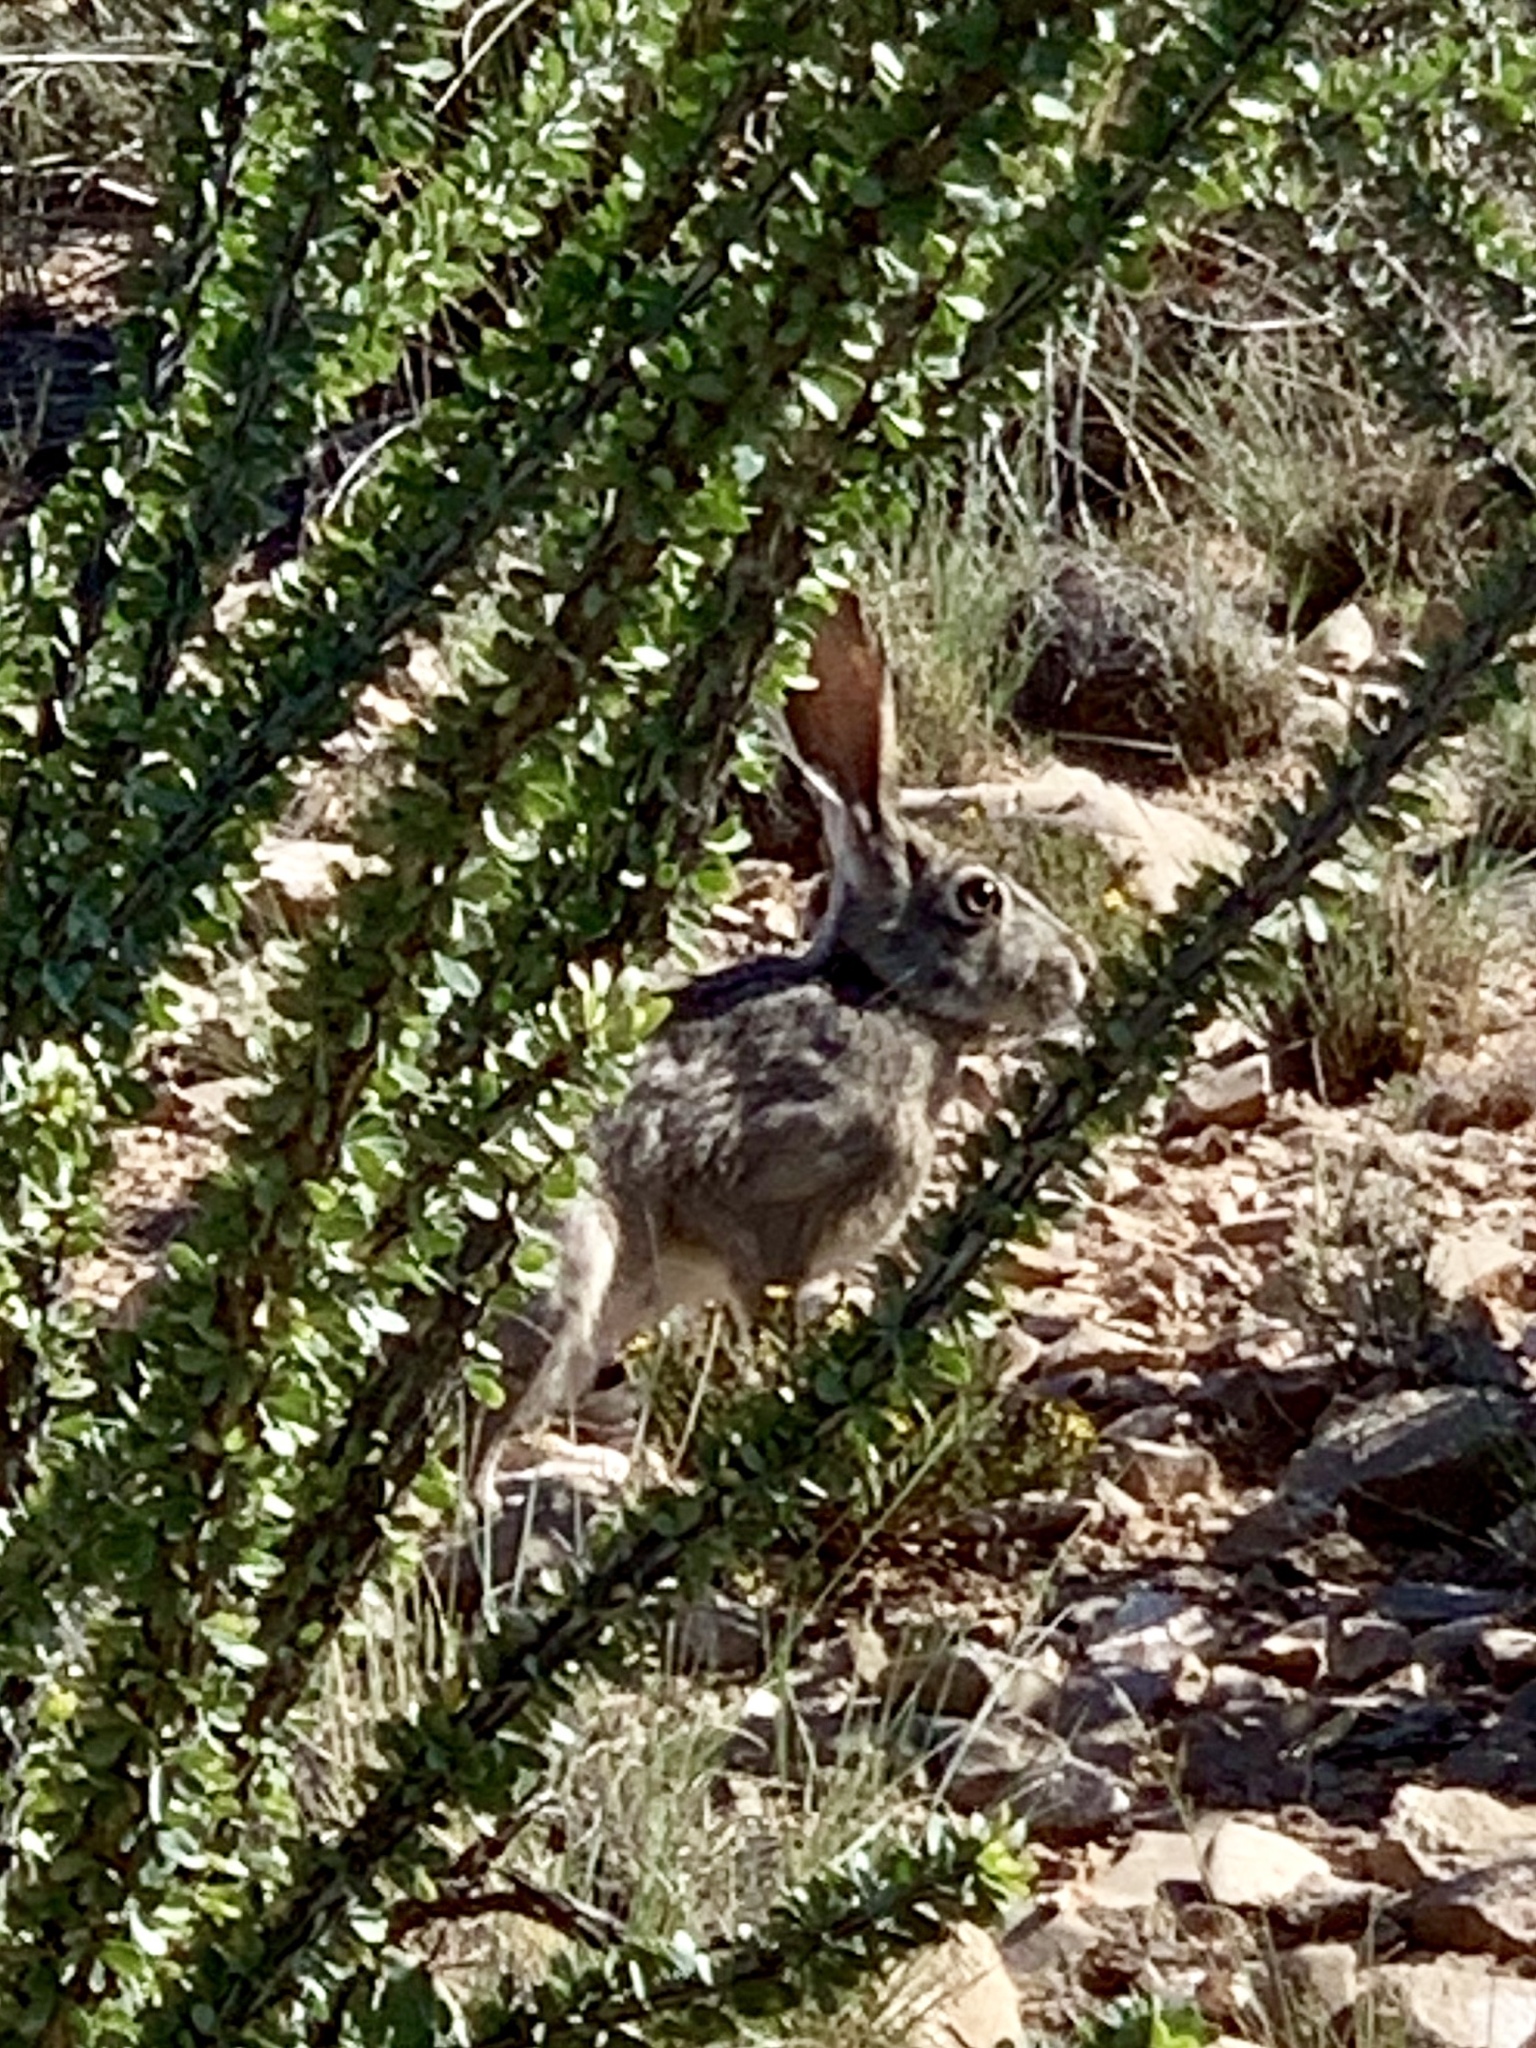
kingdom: Animalia
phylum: Chordata
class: Mammalia
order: Lagomorpha
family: Leporidae
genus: Lepus
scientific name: Lepus californicus
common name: Black-tailed jackrabbit
